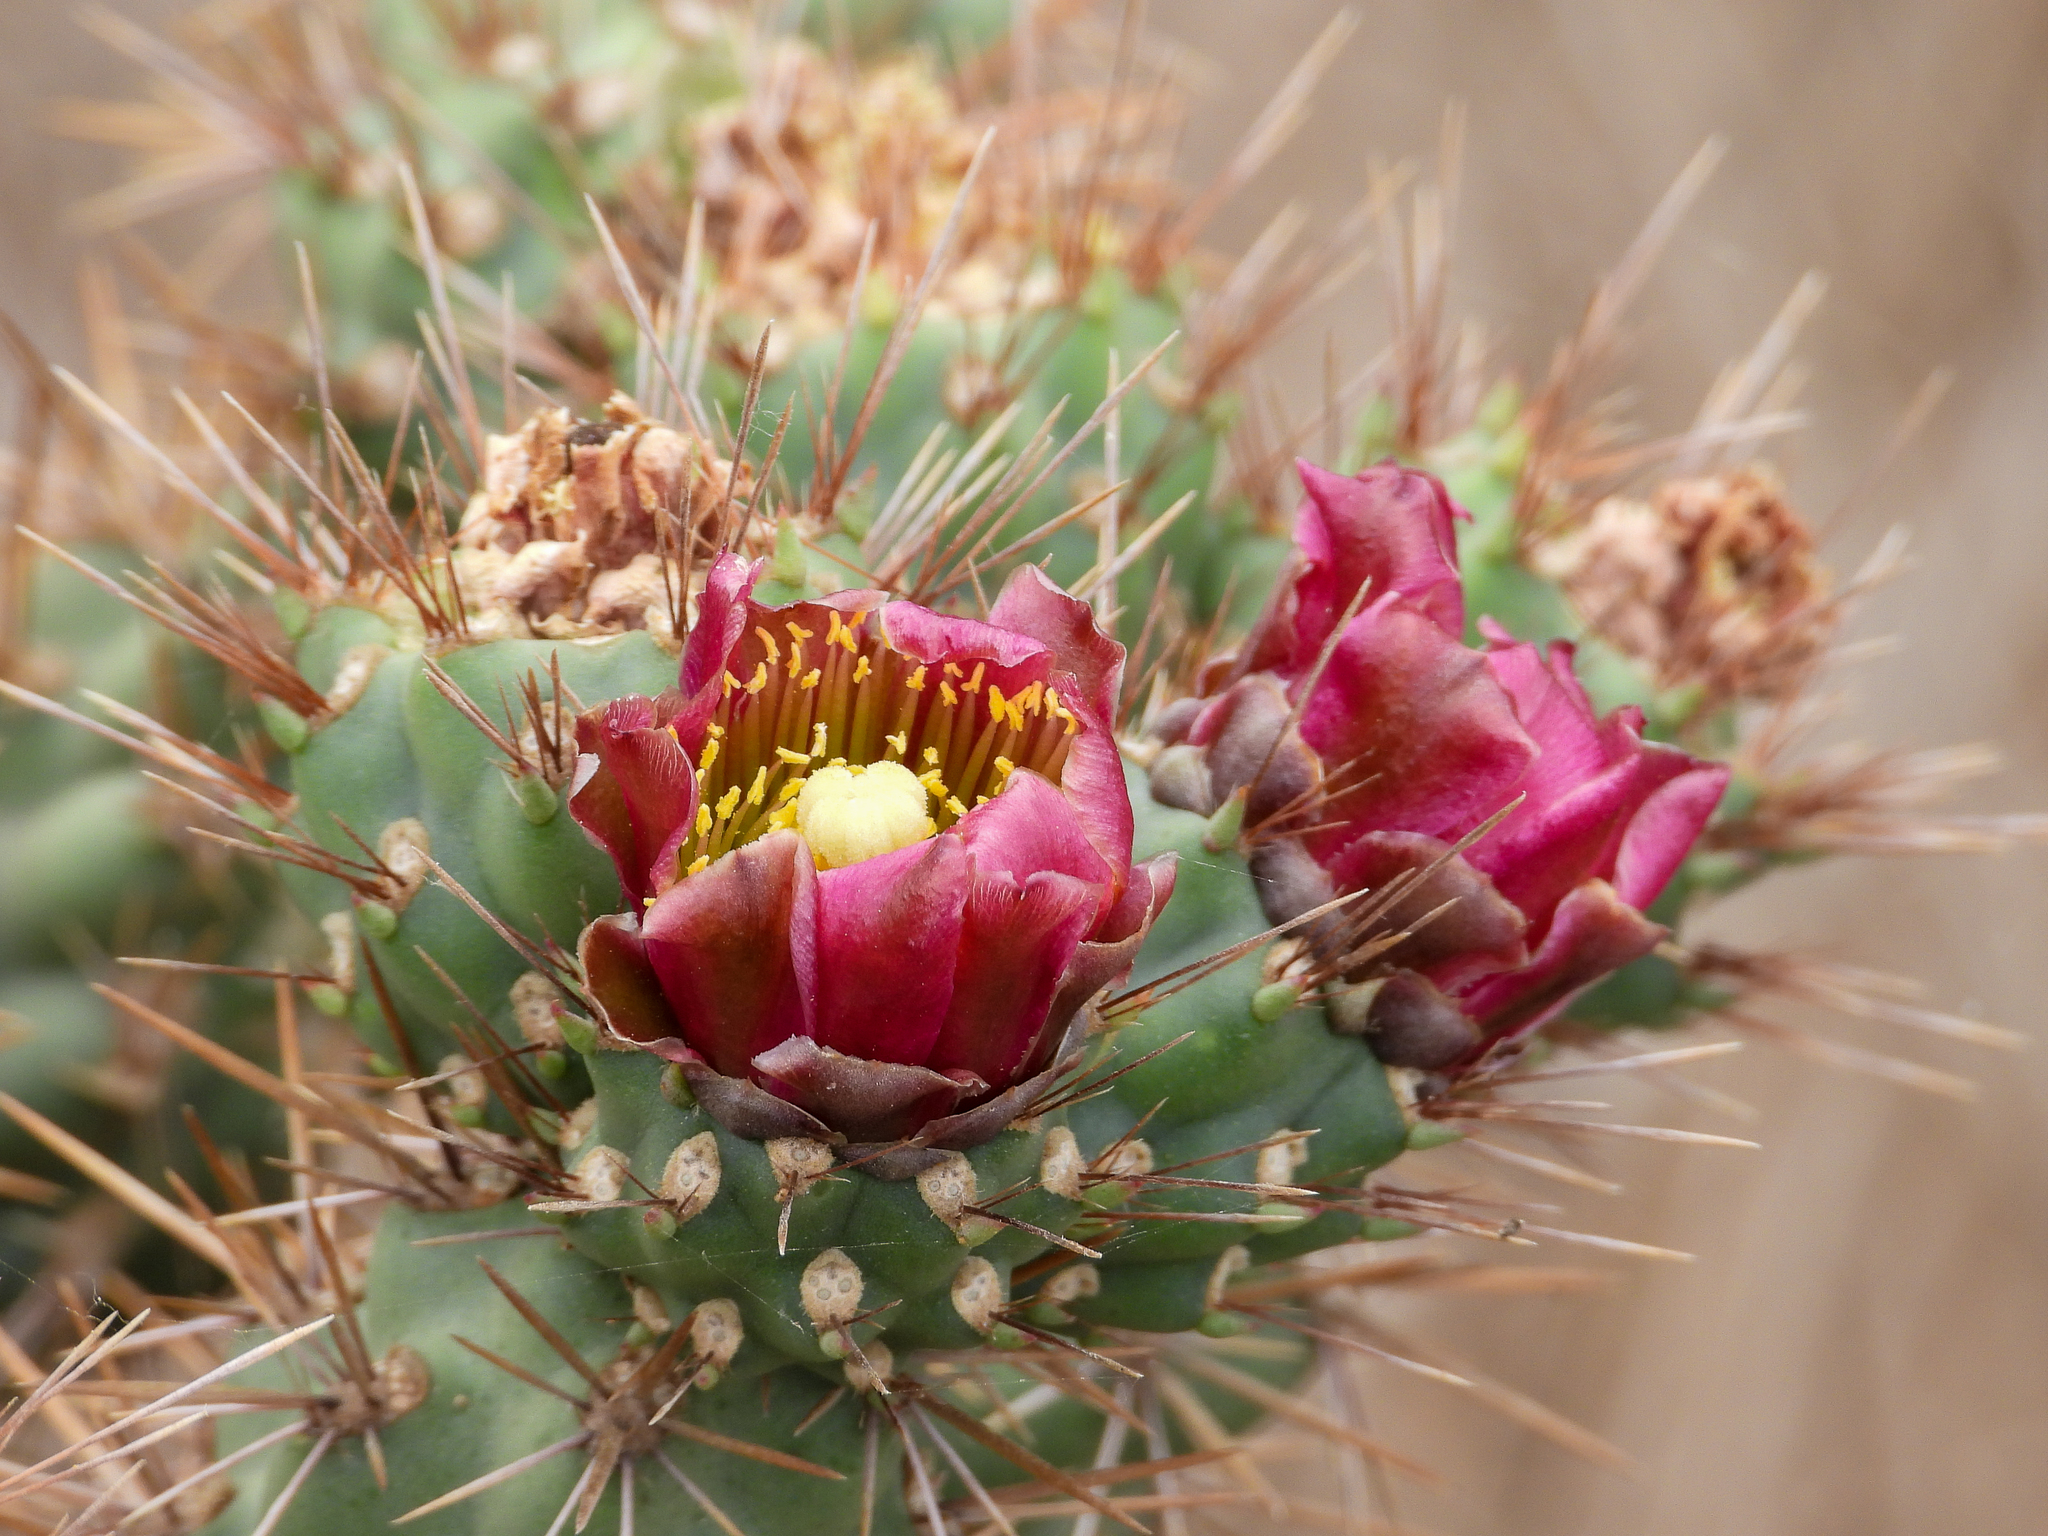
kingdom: Plantae
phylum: Tracheophyta
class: Magnoliopsida
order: Caryophyllales
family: Cactaceae
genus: Cylindropuntia
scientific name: Cylindropuntia prolifera
